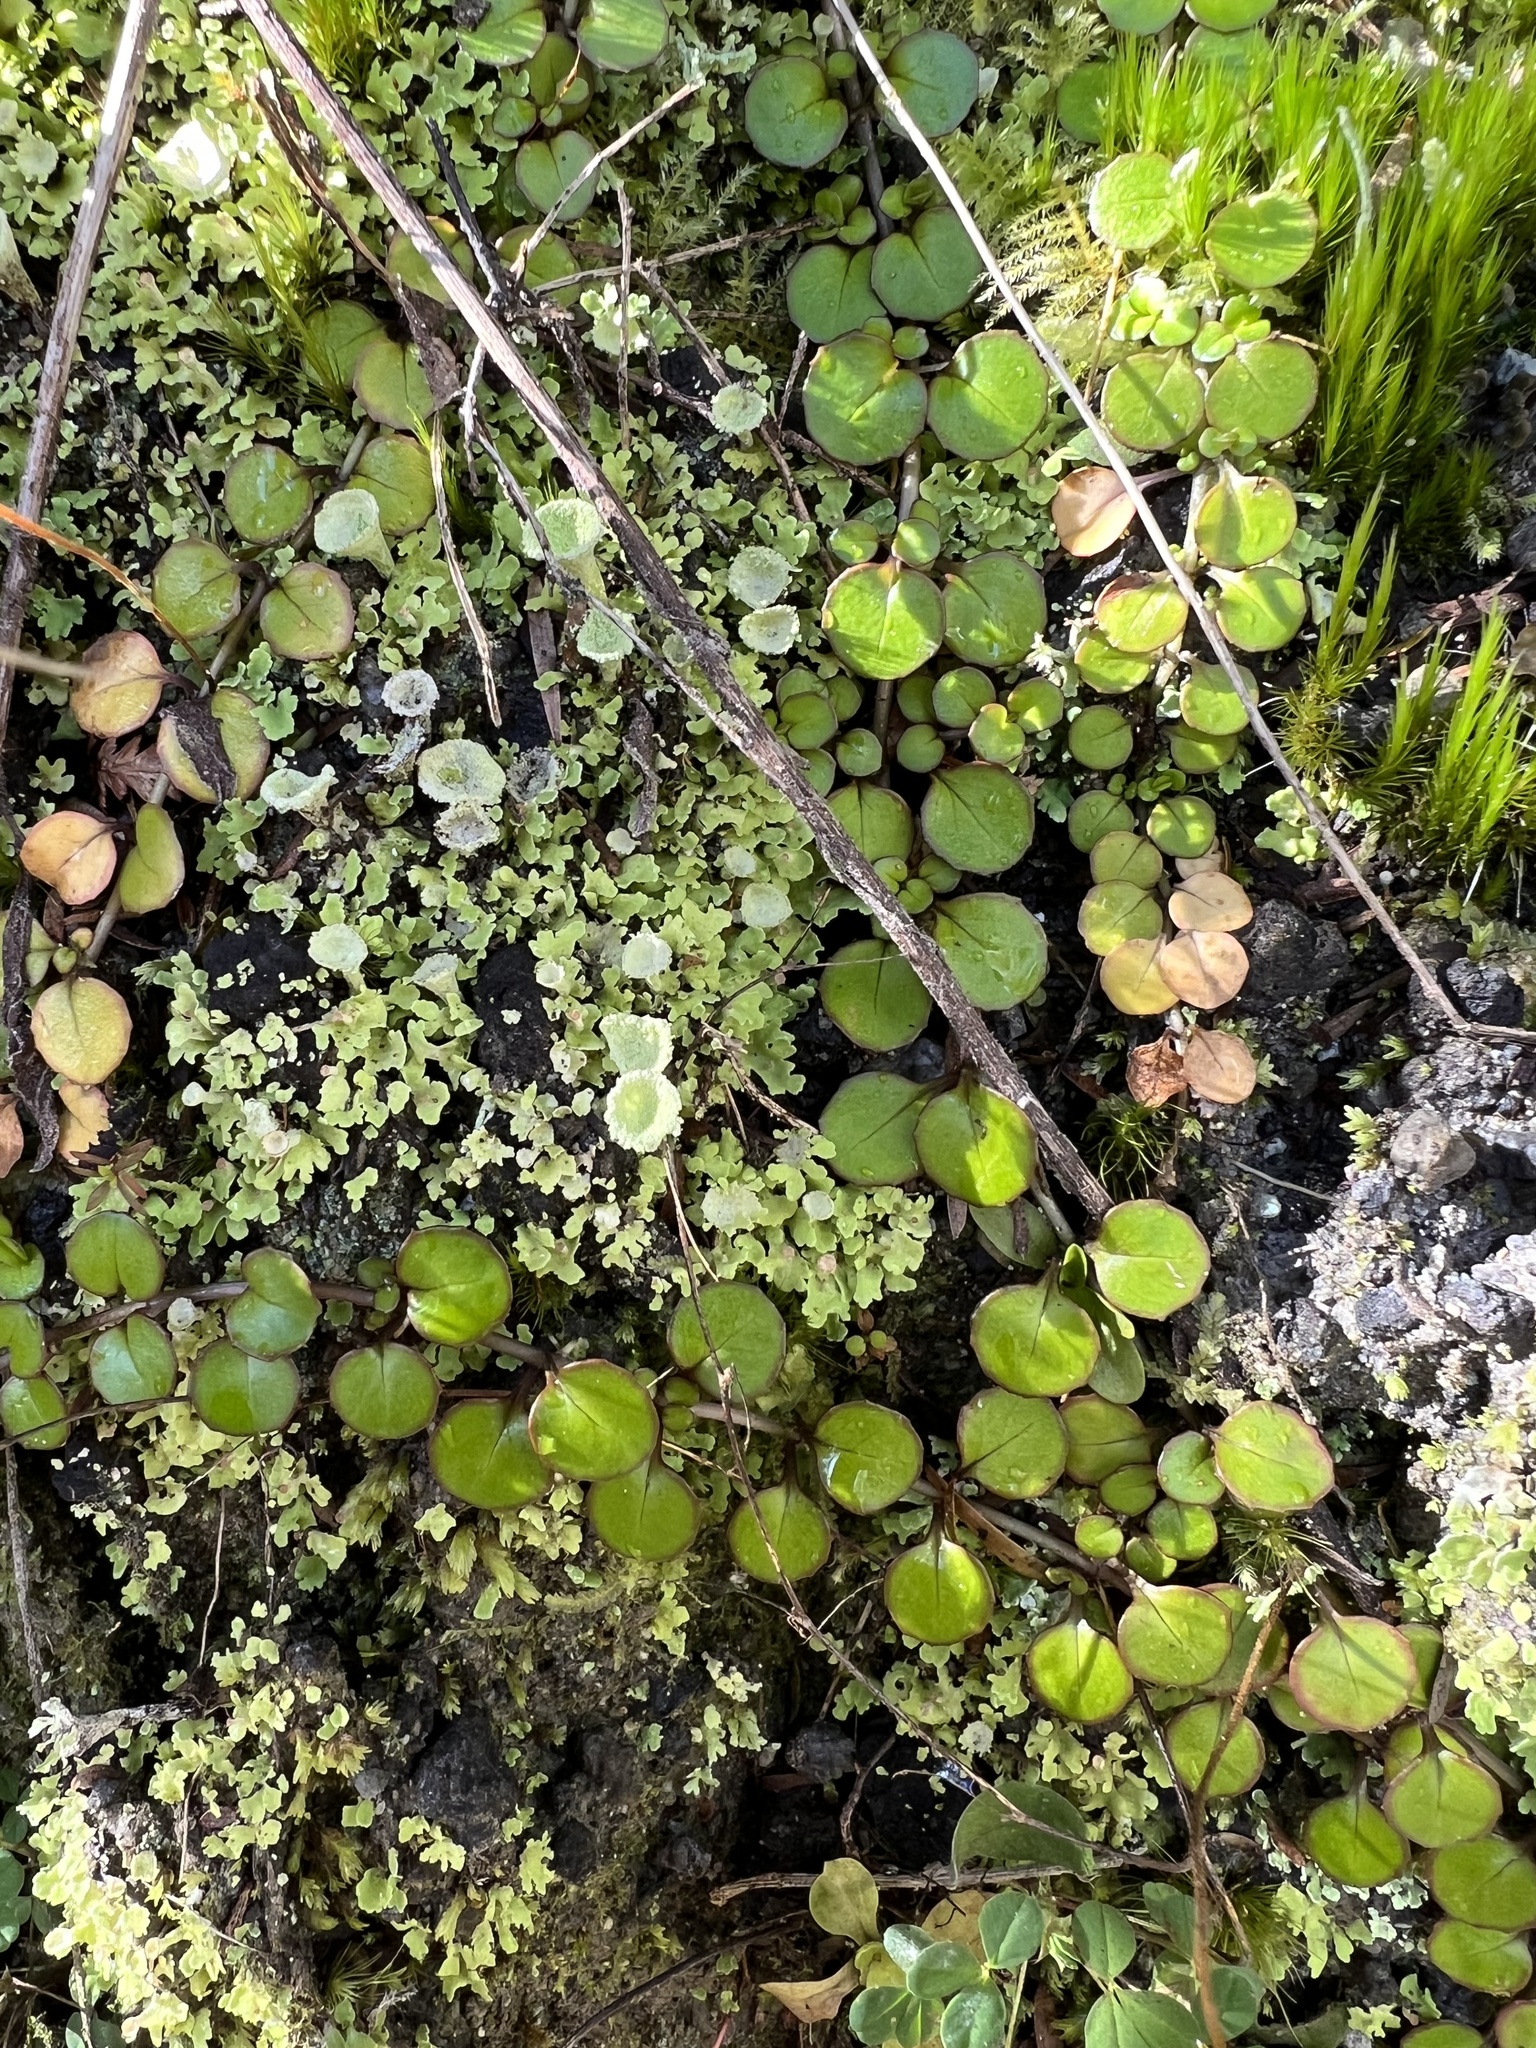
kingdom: Plantae
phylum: Tracheophyta
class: Magnoliopsida
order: Myrtales
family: Onagraceae
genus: Epilobium
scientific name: Epilobium nummularifolium
